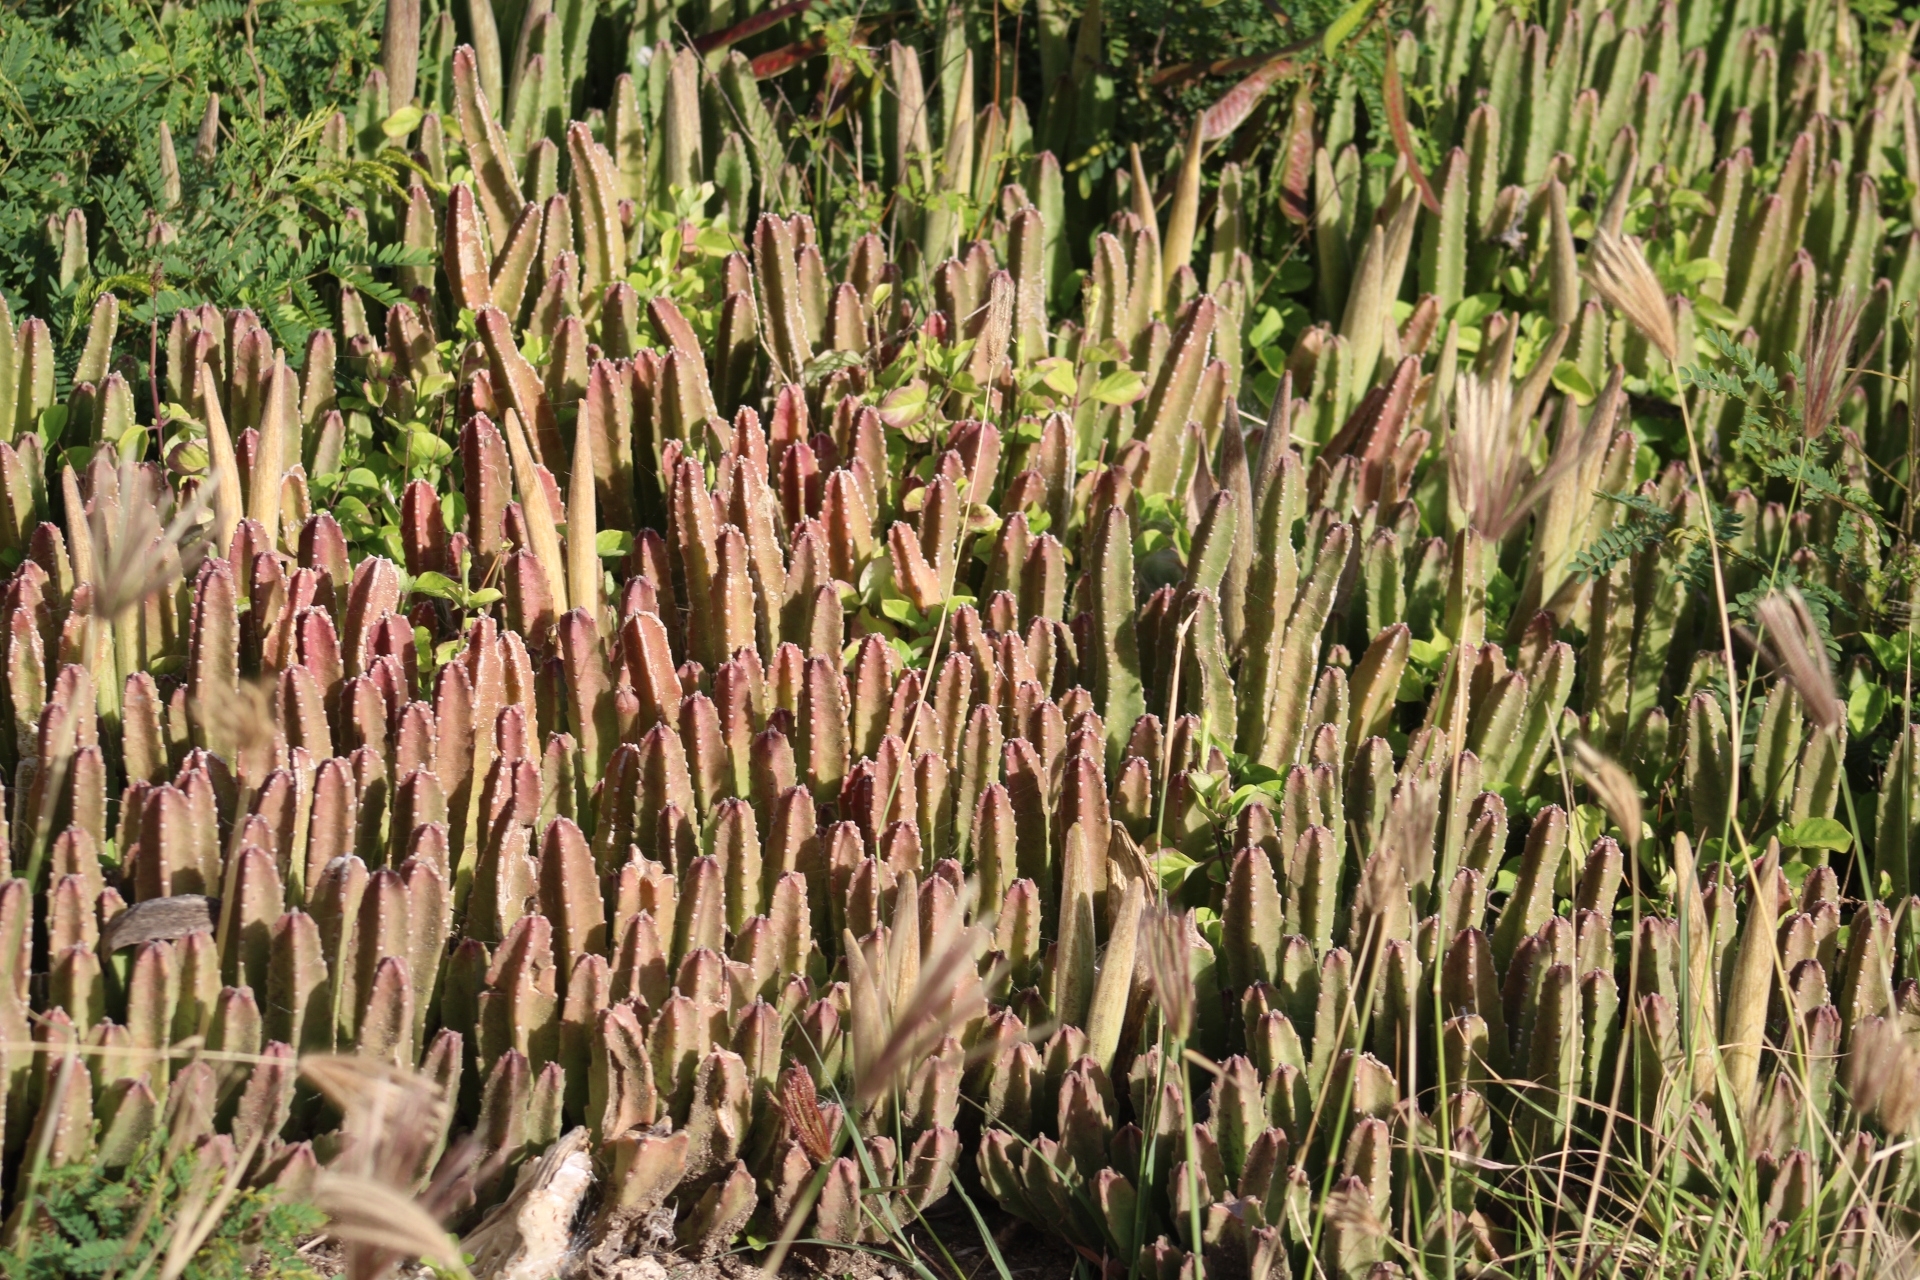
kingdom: Plantae
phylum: Tracheophyta
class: Magnoliopsida
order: Gentianales
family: Apocynaceae
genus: Ceropegia
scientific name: Ceropegia gigantea
